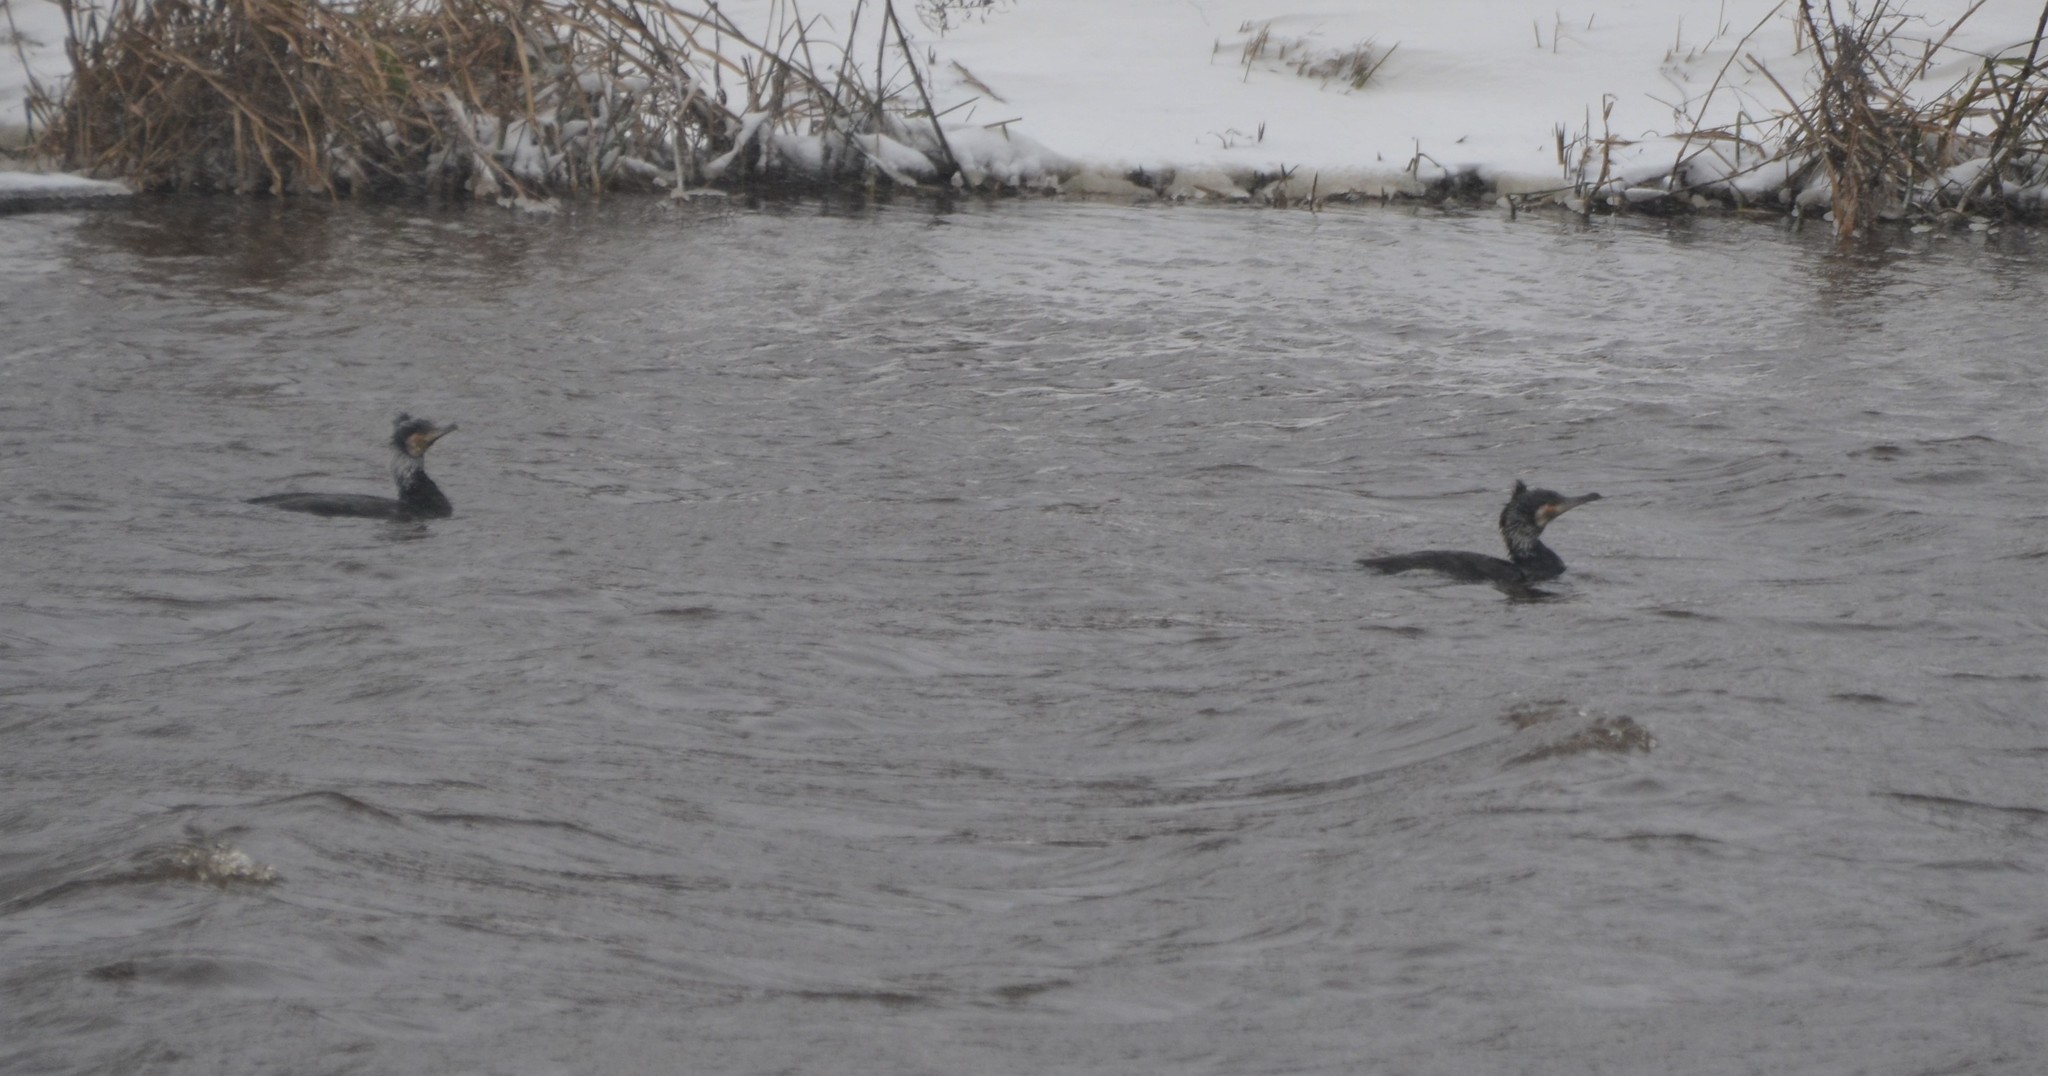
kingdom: Animalia
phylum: Chordata
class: Aves
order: Suliformes
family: Phalacrocoracidae
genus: Phalacrocorax
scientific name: Phalacrocorax carbo
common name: Great cormorant
